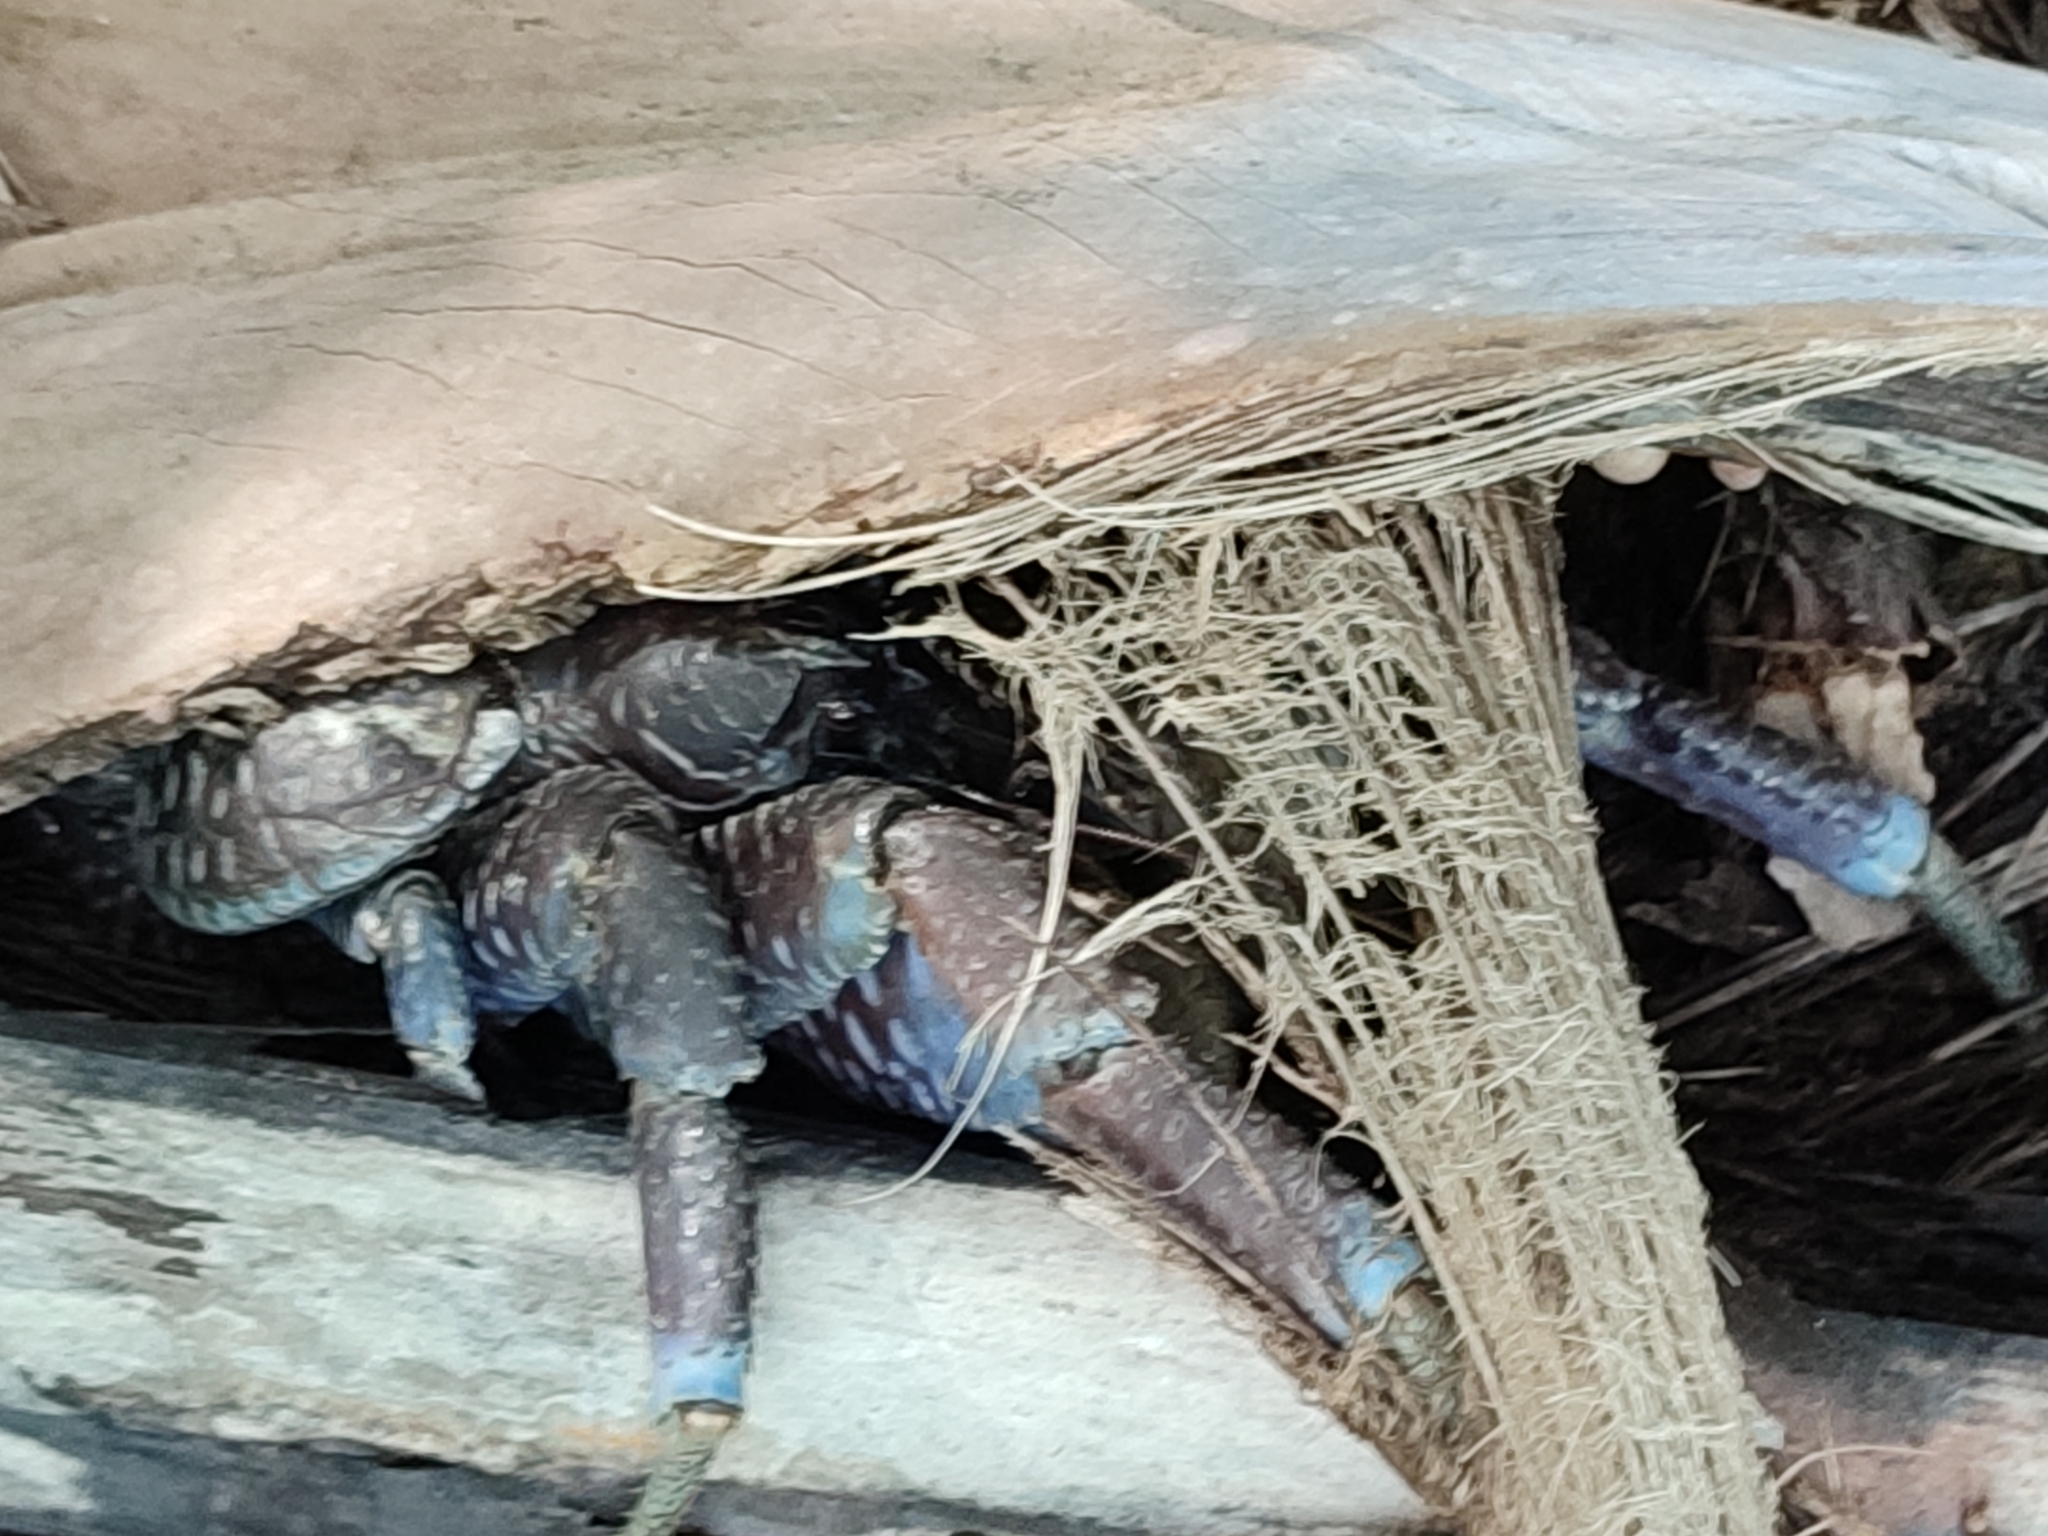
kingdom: Animalia
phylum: Arthropoda
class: Malacostraca
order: Decapoda
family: Coenobitidae
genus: Birgus
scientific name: Birgus latro
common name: Coconut crab
